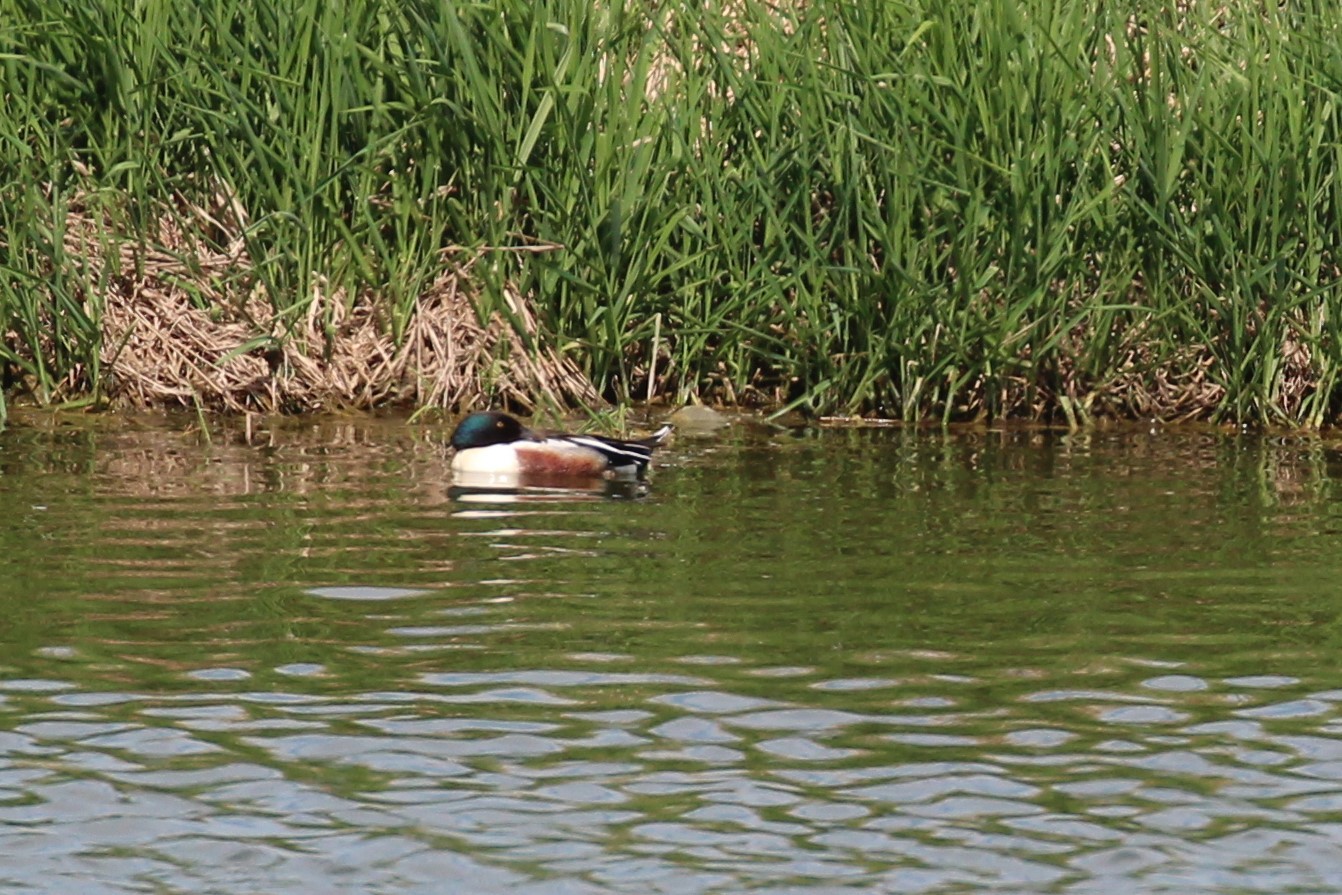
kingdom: Animalia
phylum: Chordata
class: Aves
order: Anseriformes
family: Anatidae
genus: Spatula
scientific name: Spatula clypeata
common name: Northern shoveler
